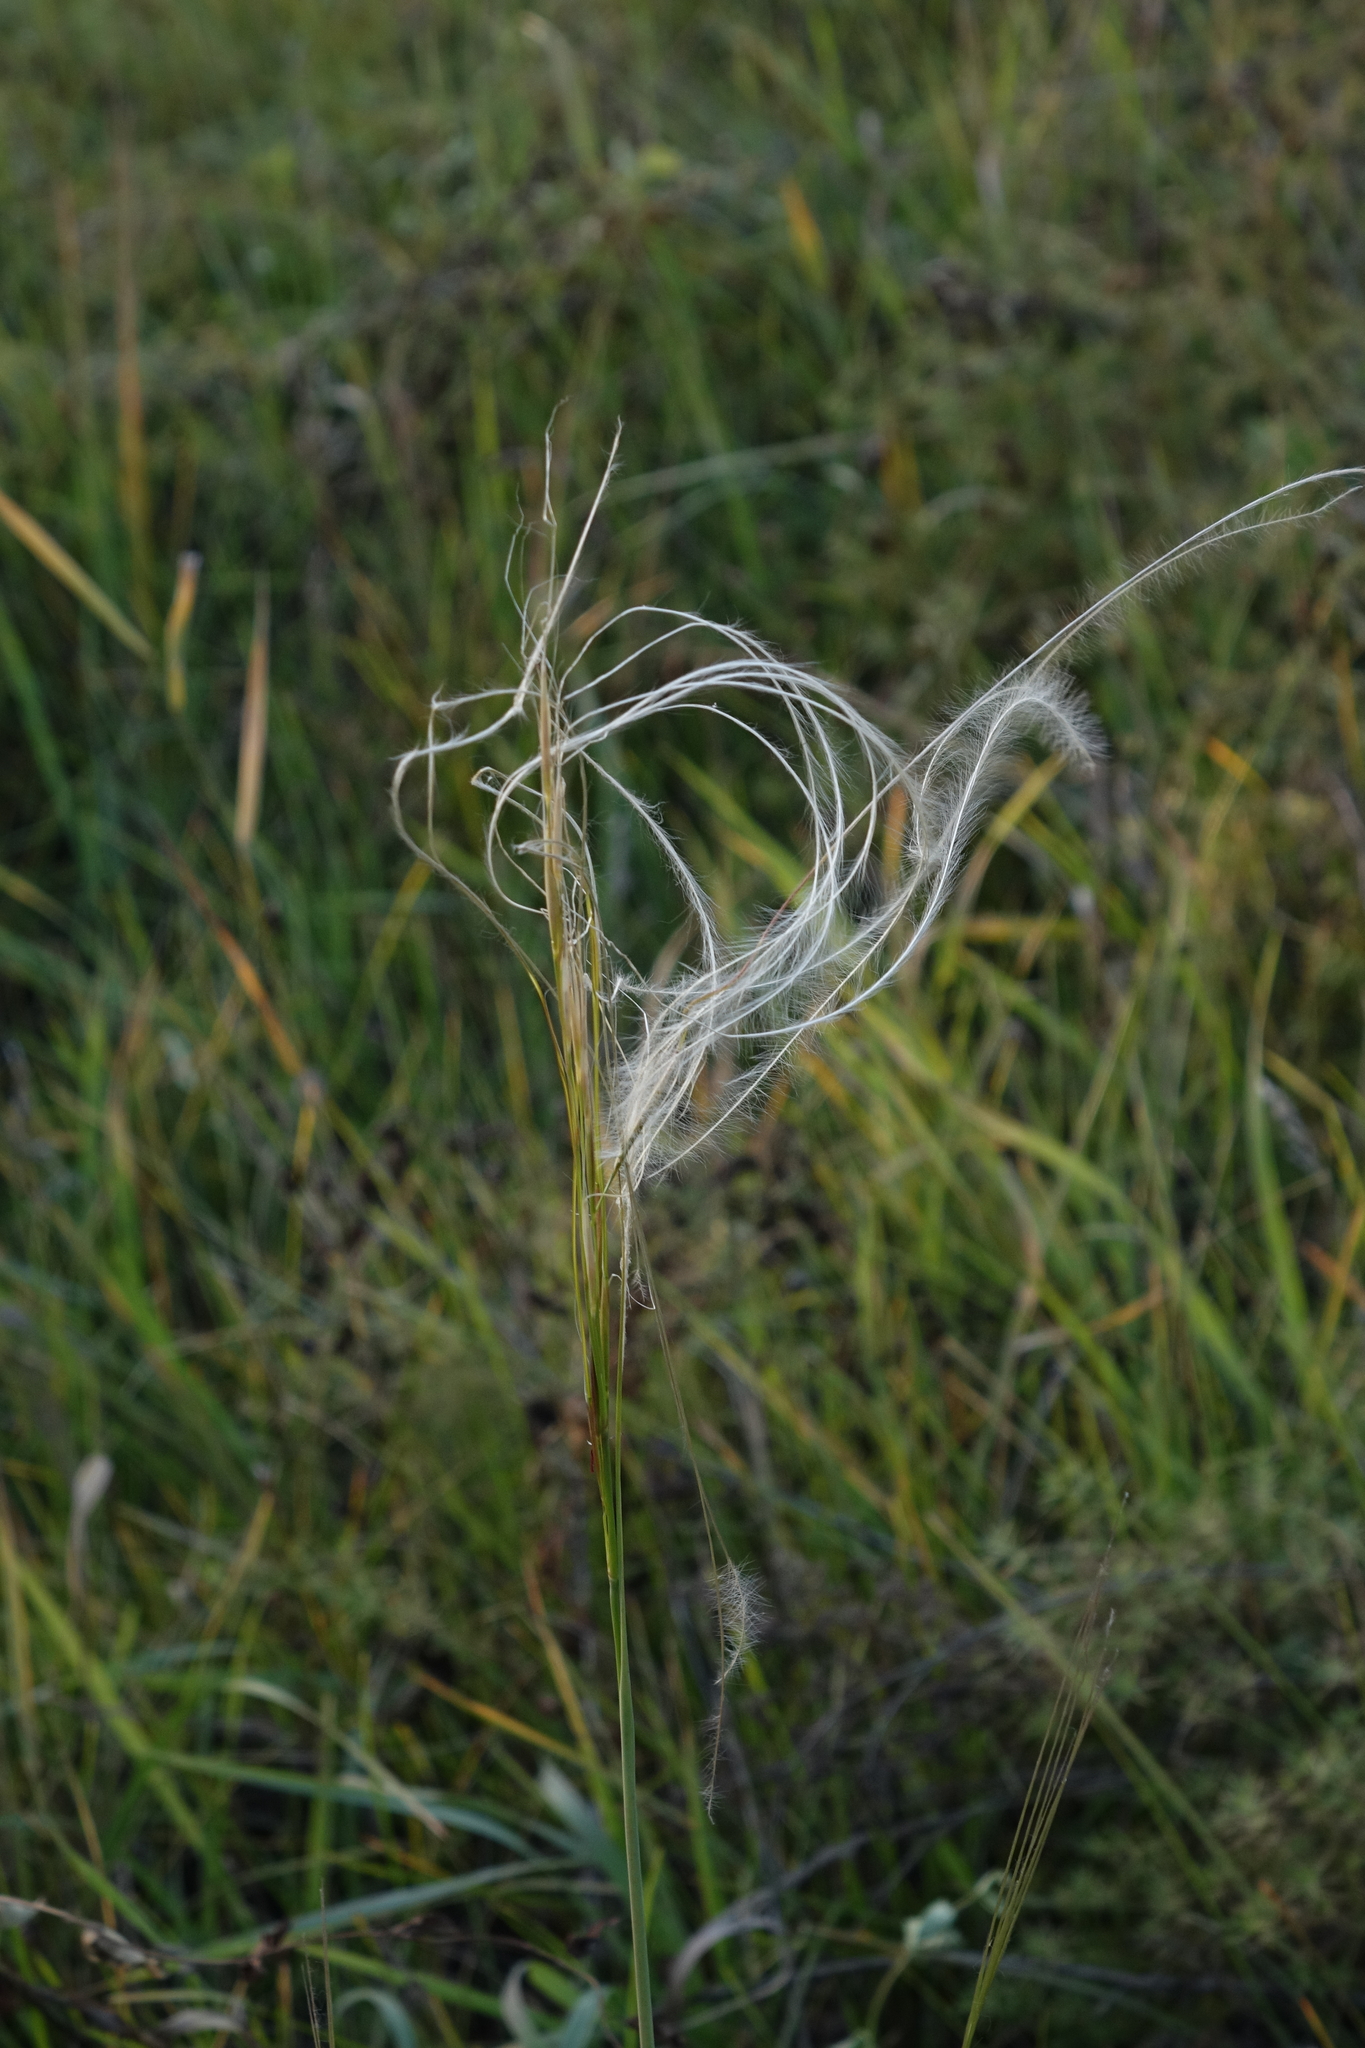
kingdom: Plantae
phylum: Tracheophyta
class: Liliopsida
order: Poales
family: Poaceae
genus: Stipa
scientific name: Stipa pennata
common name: European feather grass
